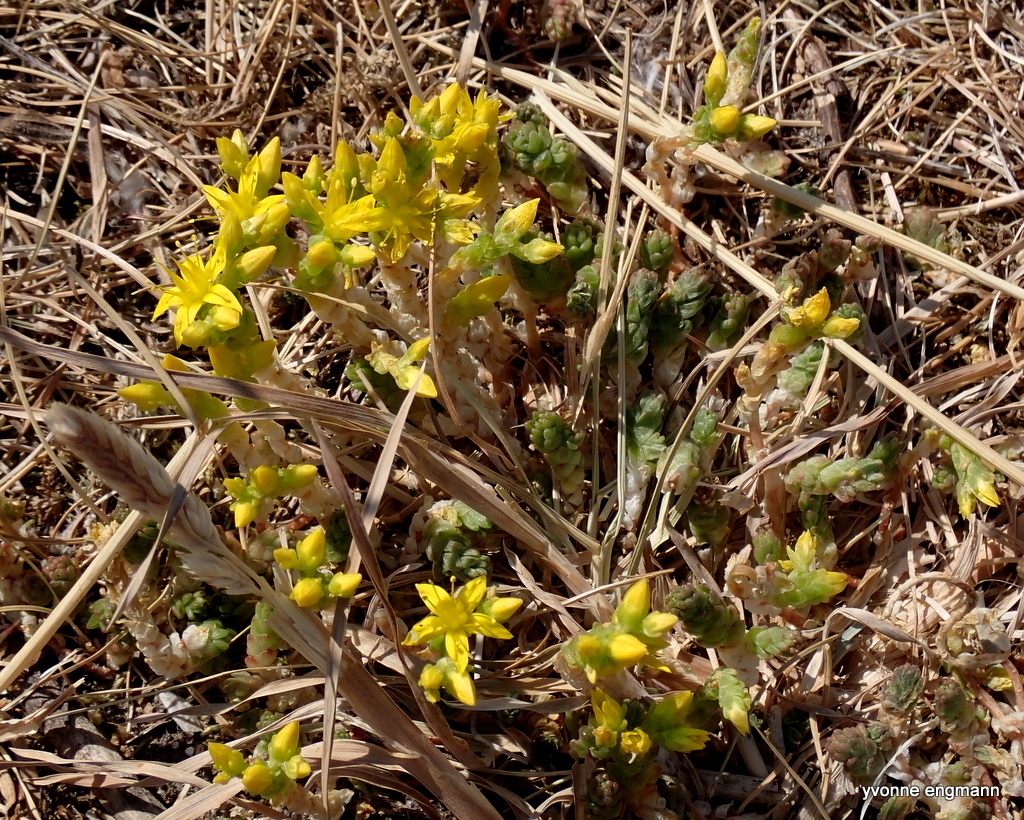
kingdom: Plantae
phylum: Tracheophyta
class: Magnoliopsida
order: Saxifragales
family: Crassulaceae
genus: Sedum
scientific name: Sedum acre
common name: Biting stonecrop
